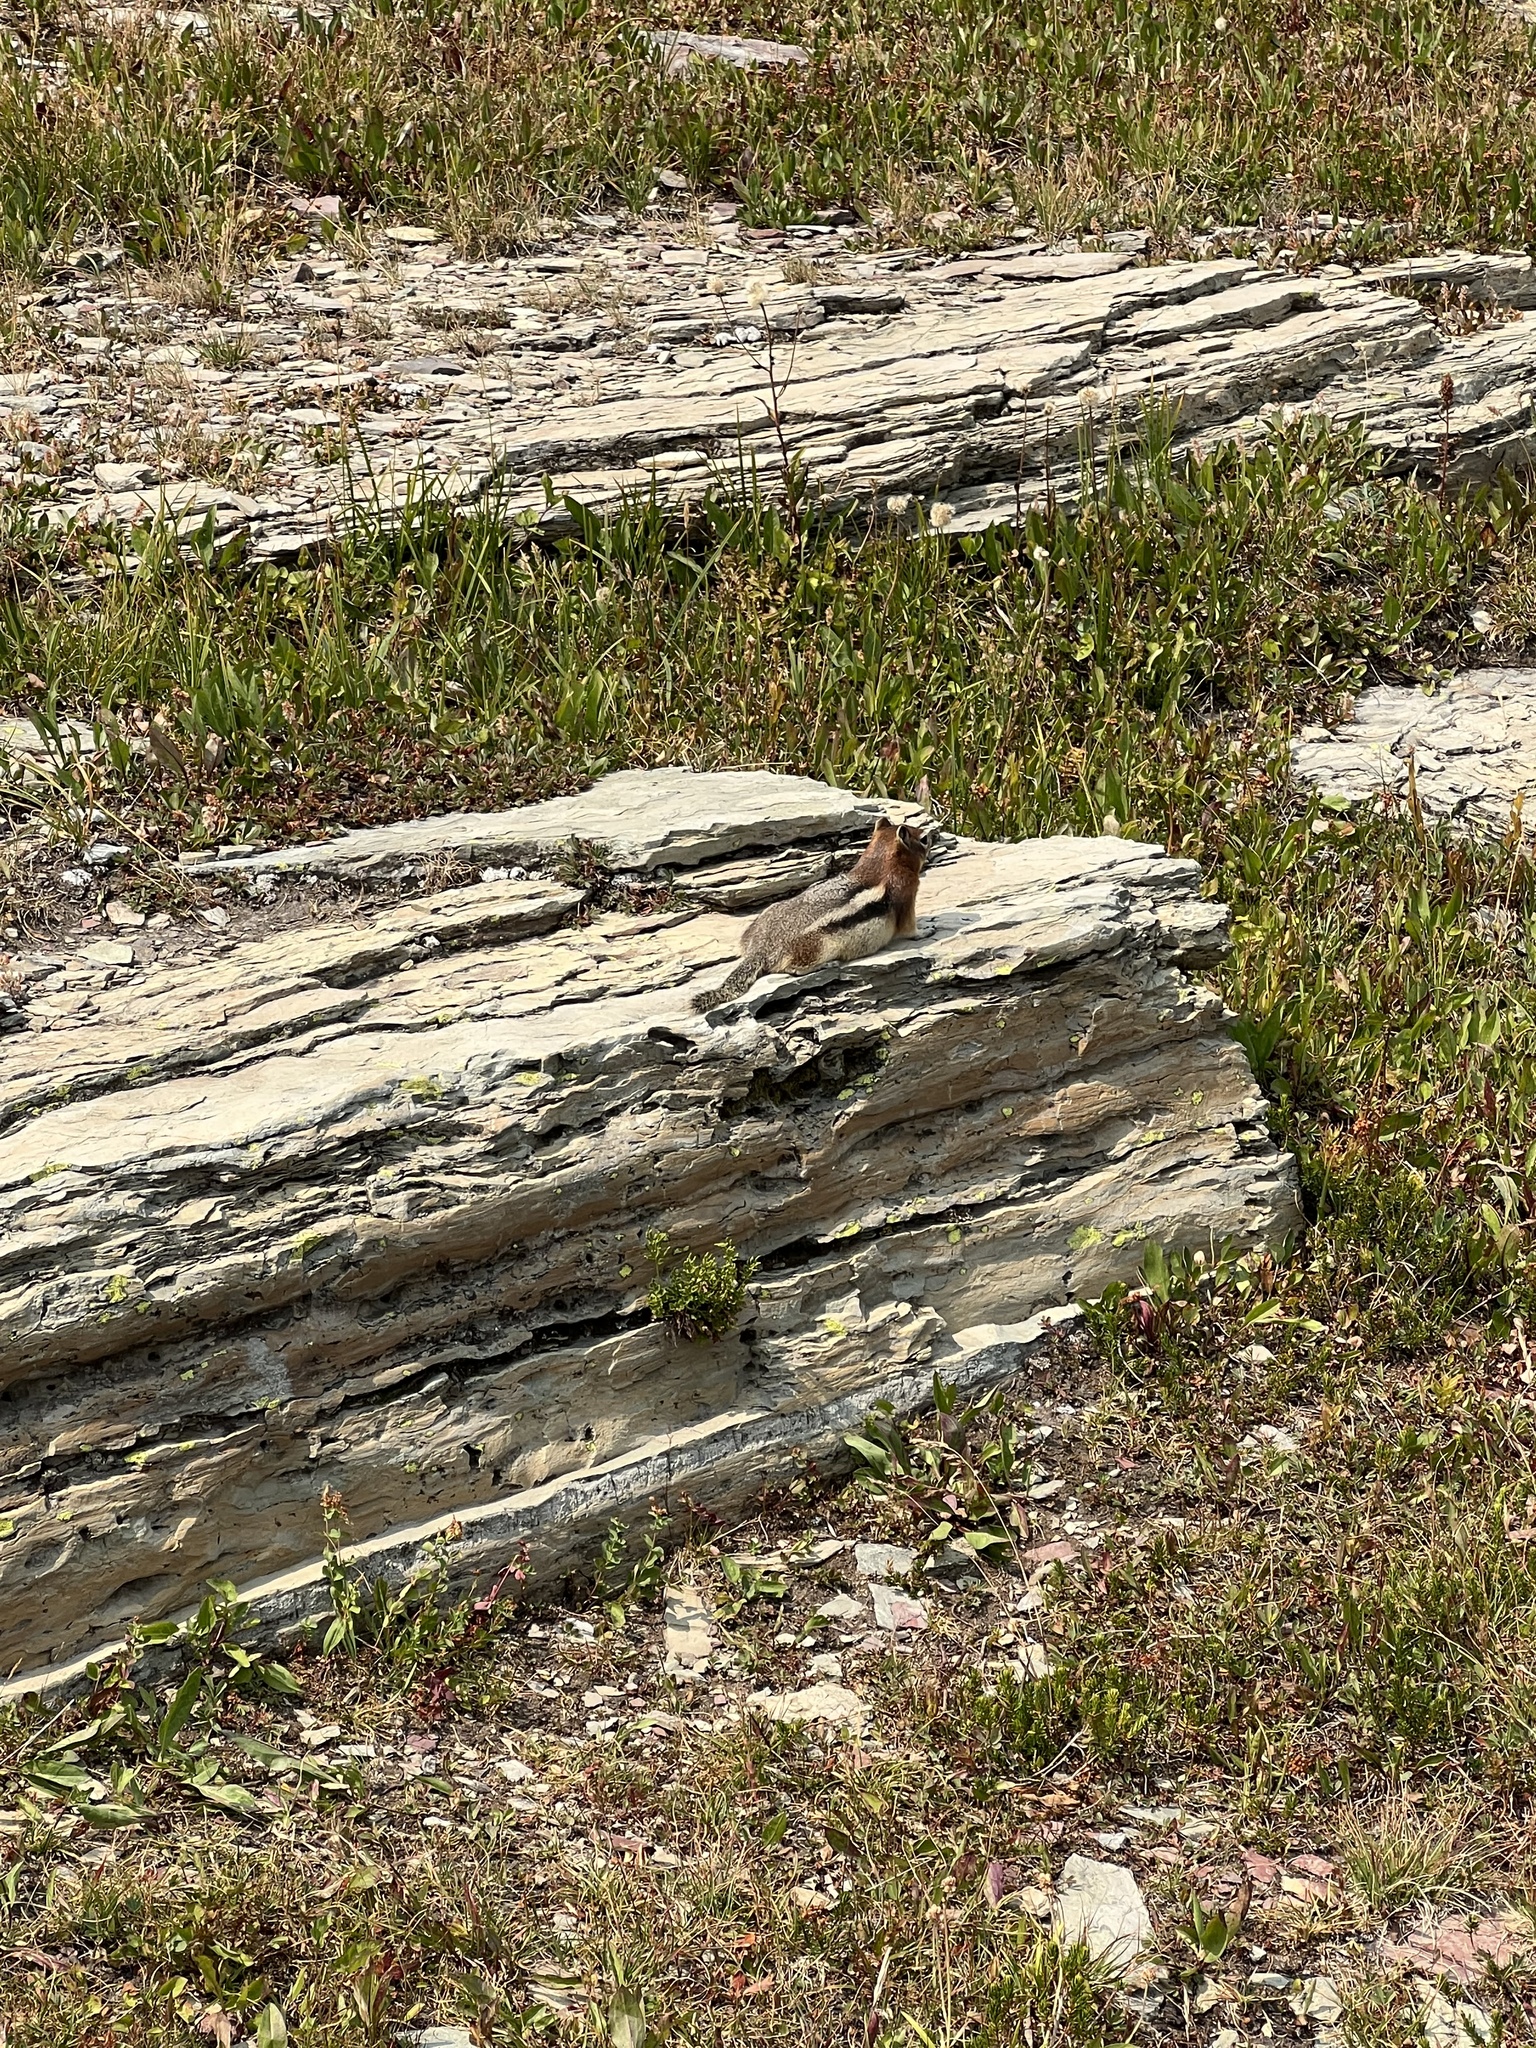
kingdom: Animalia
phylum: Chordata
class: Mammalia
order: Rodentia
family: Sciuridae
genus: Callospermophilus
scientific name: Callospermophilus lateralis
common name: Golden-mantled ground squirrel
